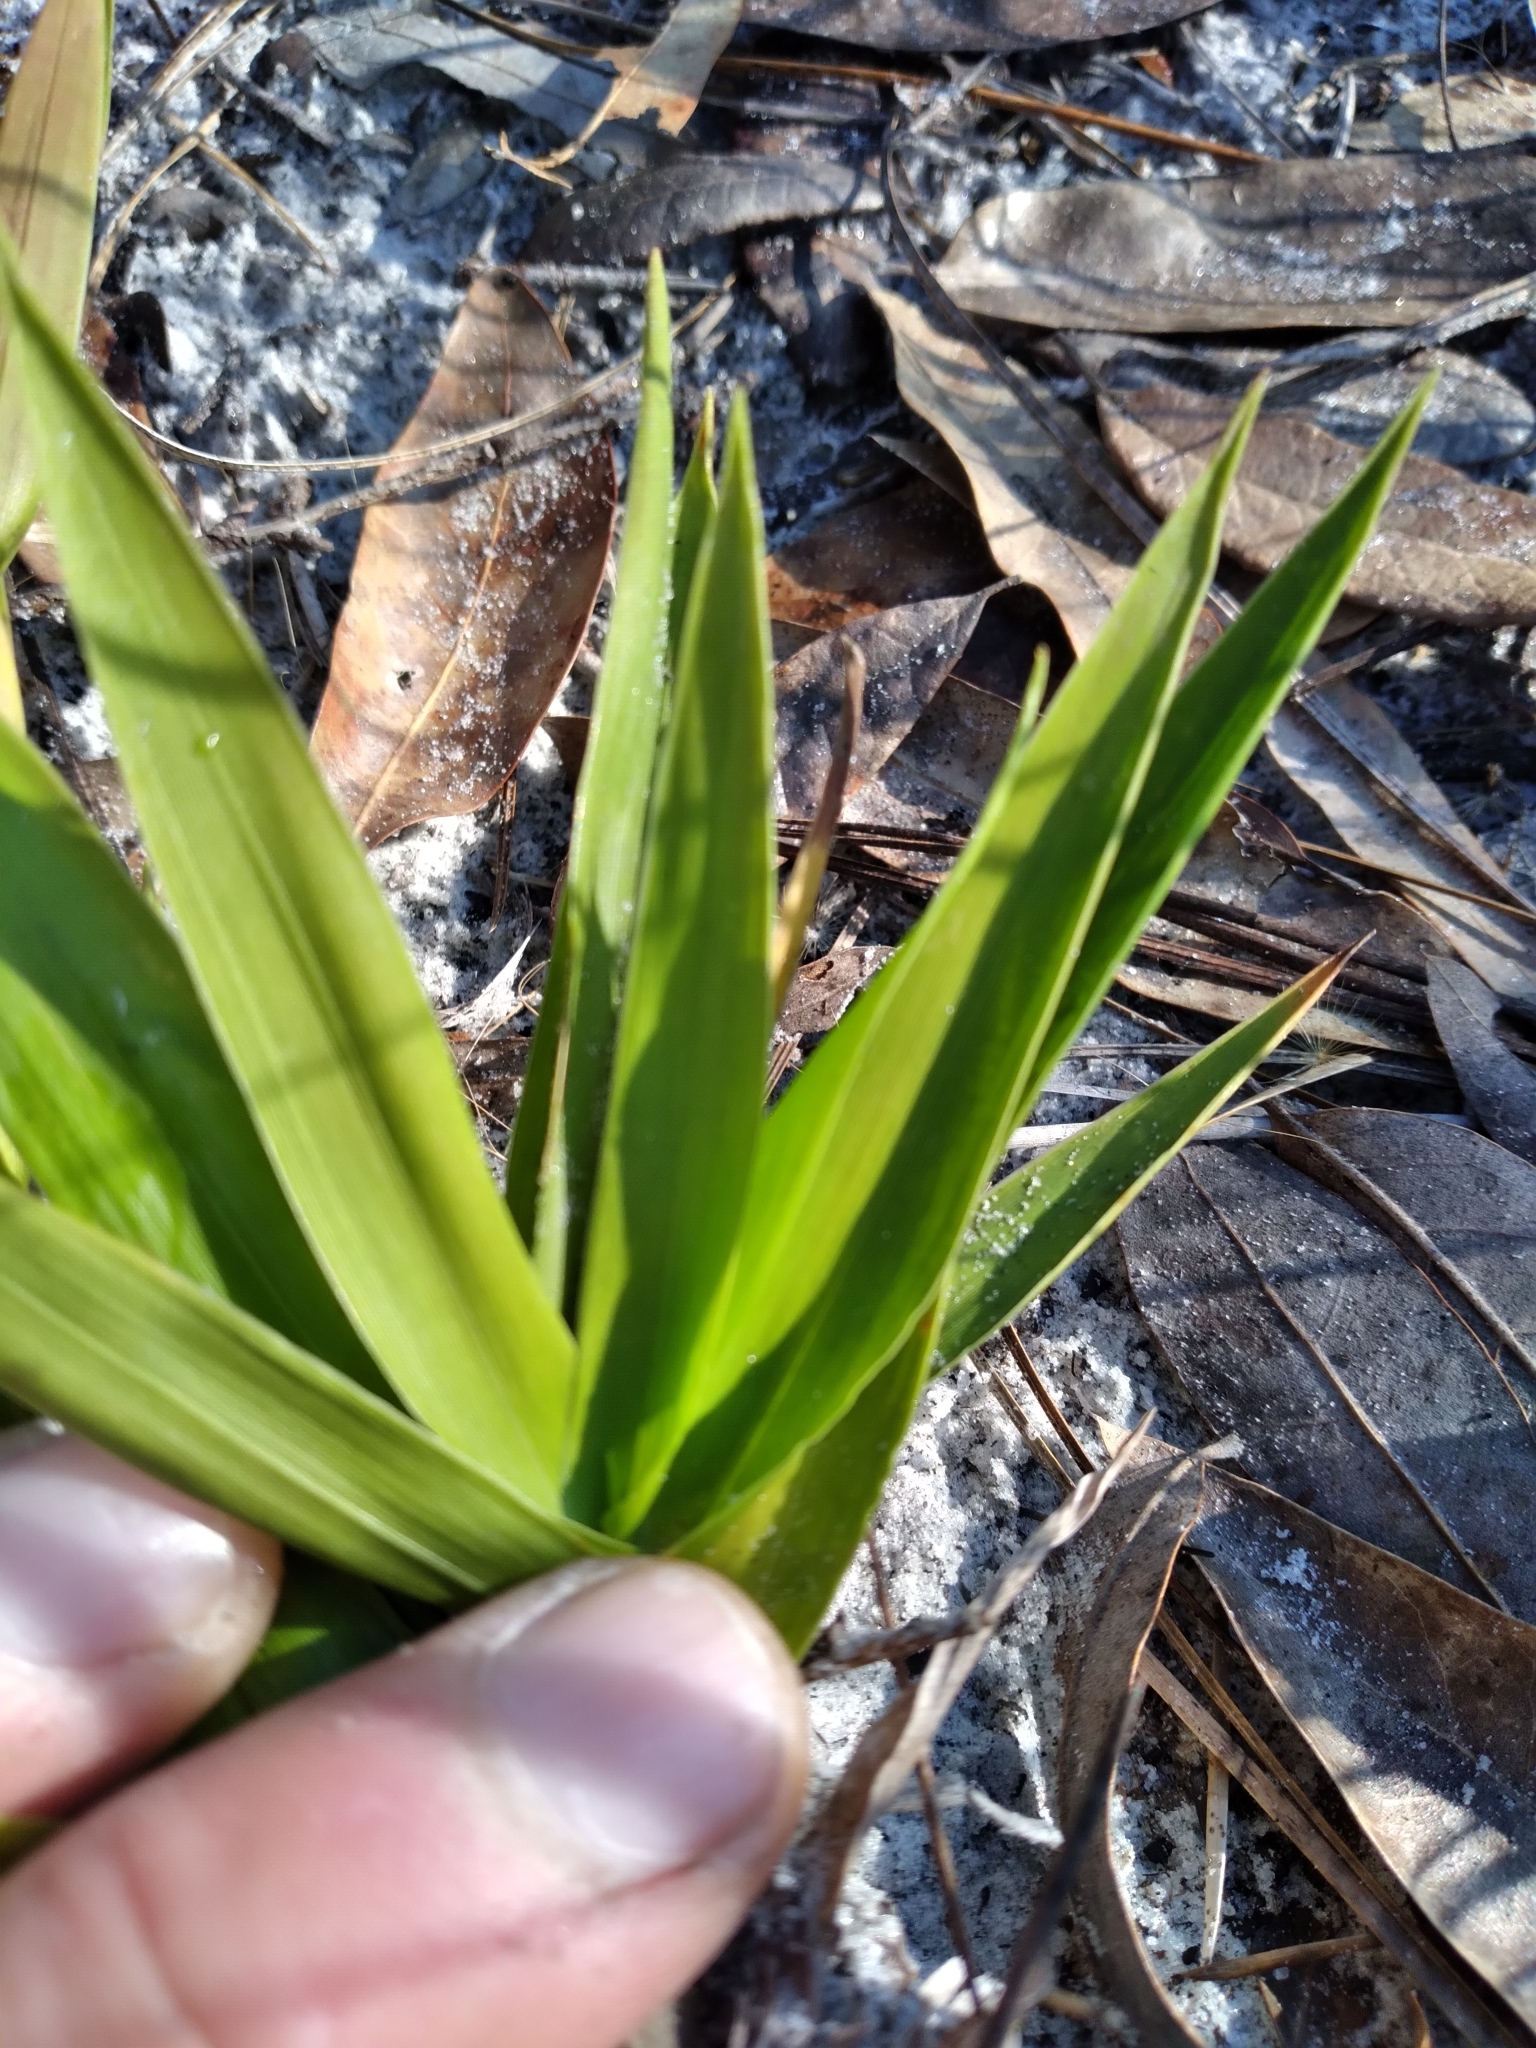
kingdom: Plantae
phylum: Tracheophyta
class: Liliopsida
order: Poales
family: Poaceae
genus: Dichanthelium
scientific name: Dichanthelium tenue
